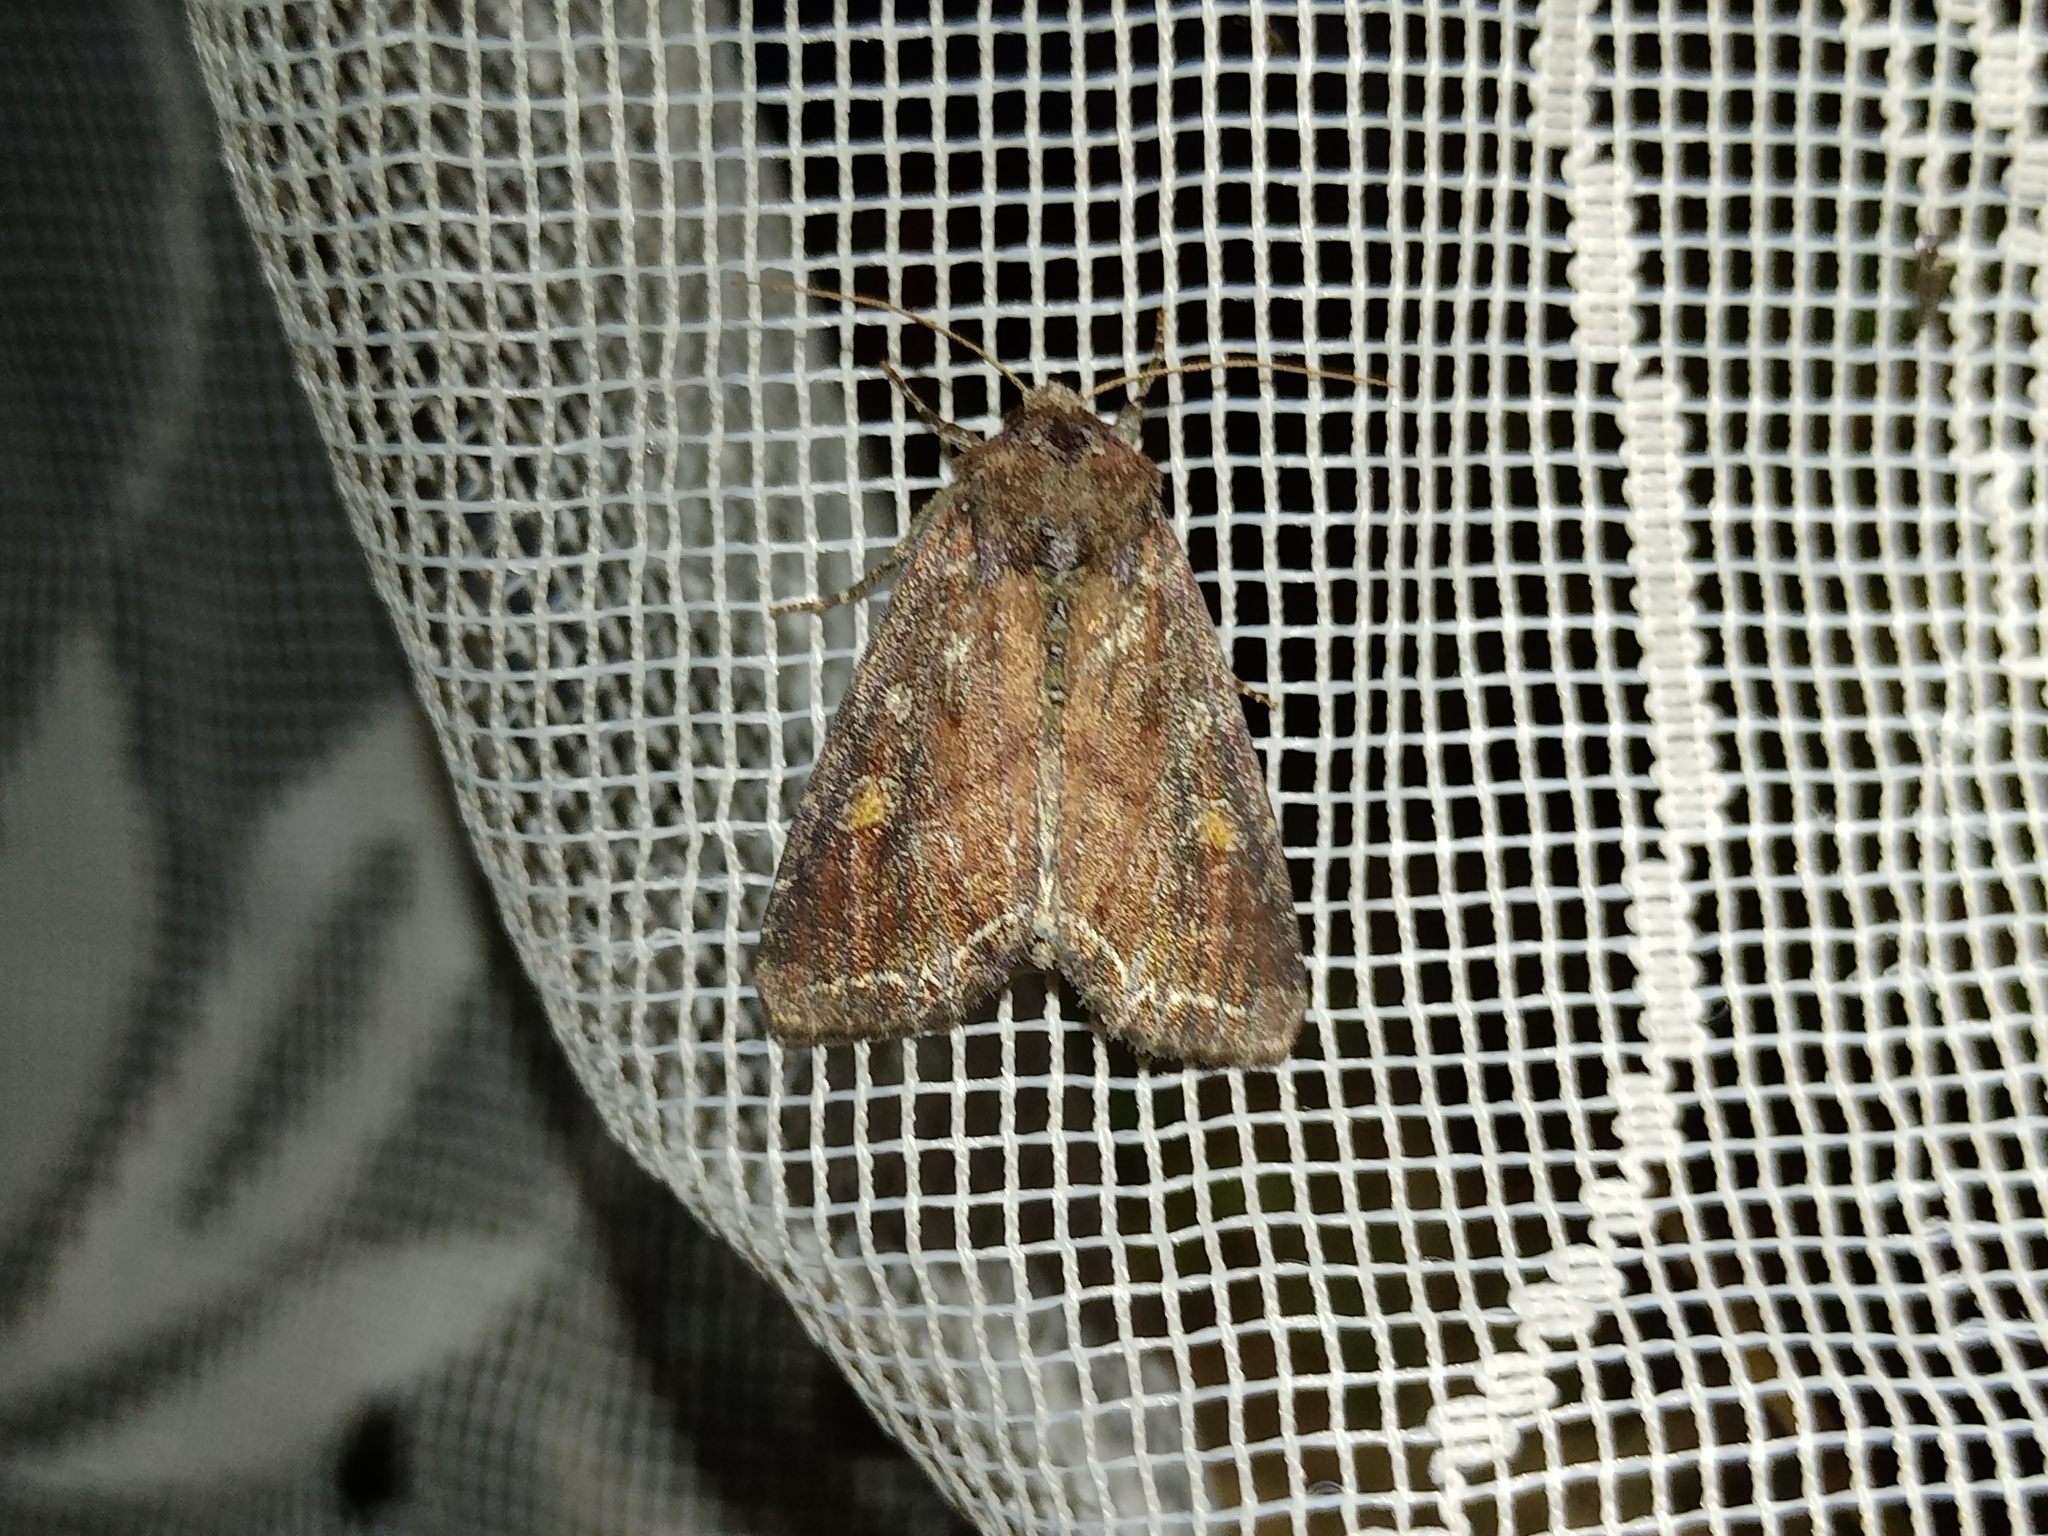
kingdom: Animalia
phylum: Arthropoda
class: Insecta
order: Lepidoptera
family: Noctuidae
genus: Lacanobia
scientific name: Lacanobia oleracea
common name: Bright-line brown-eye
